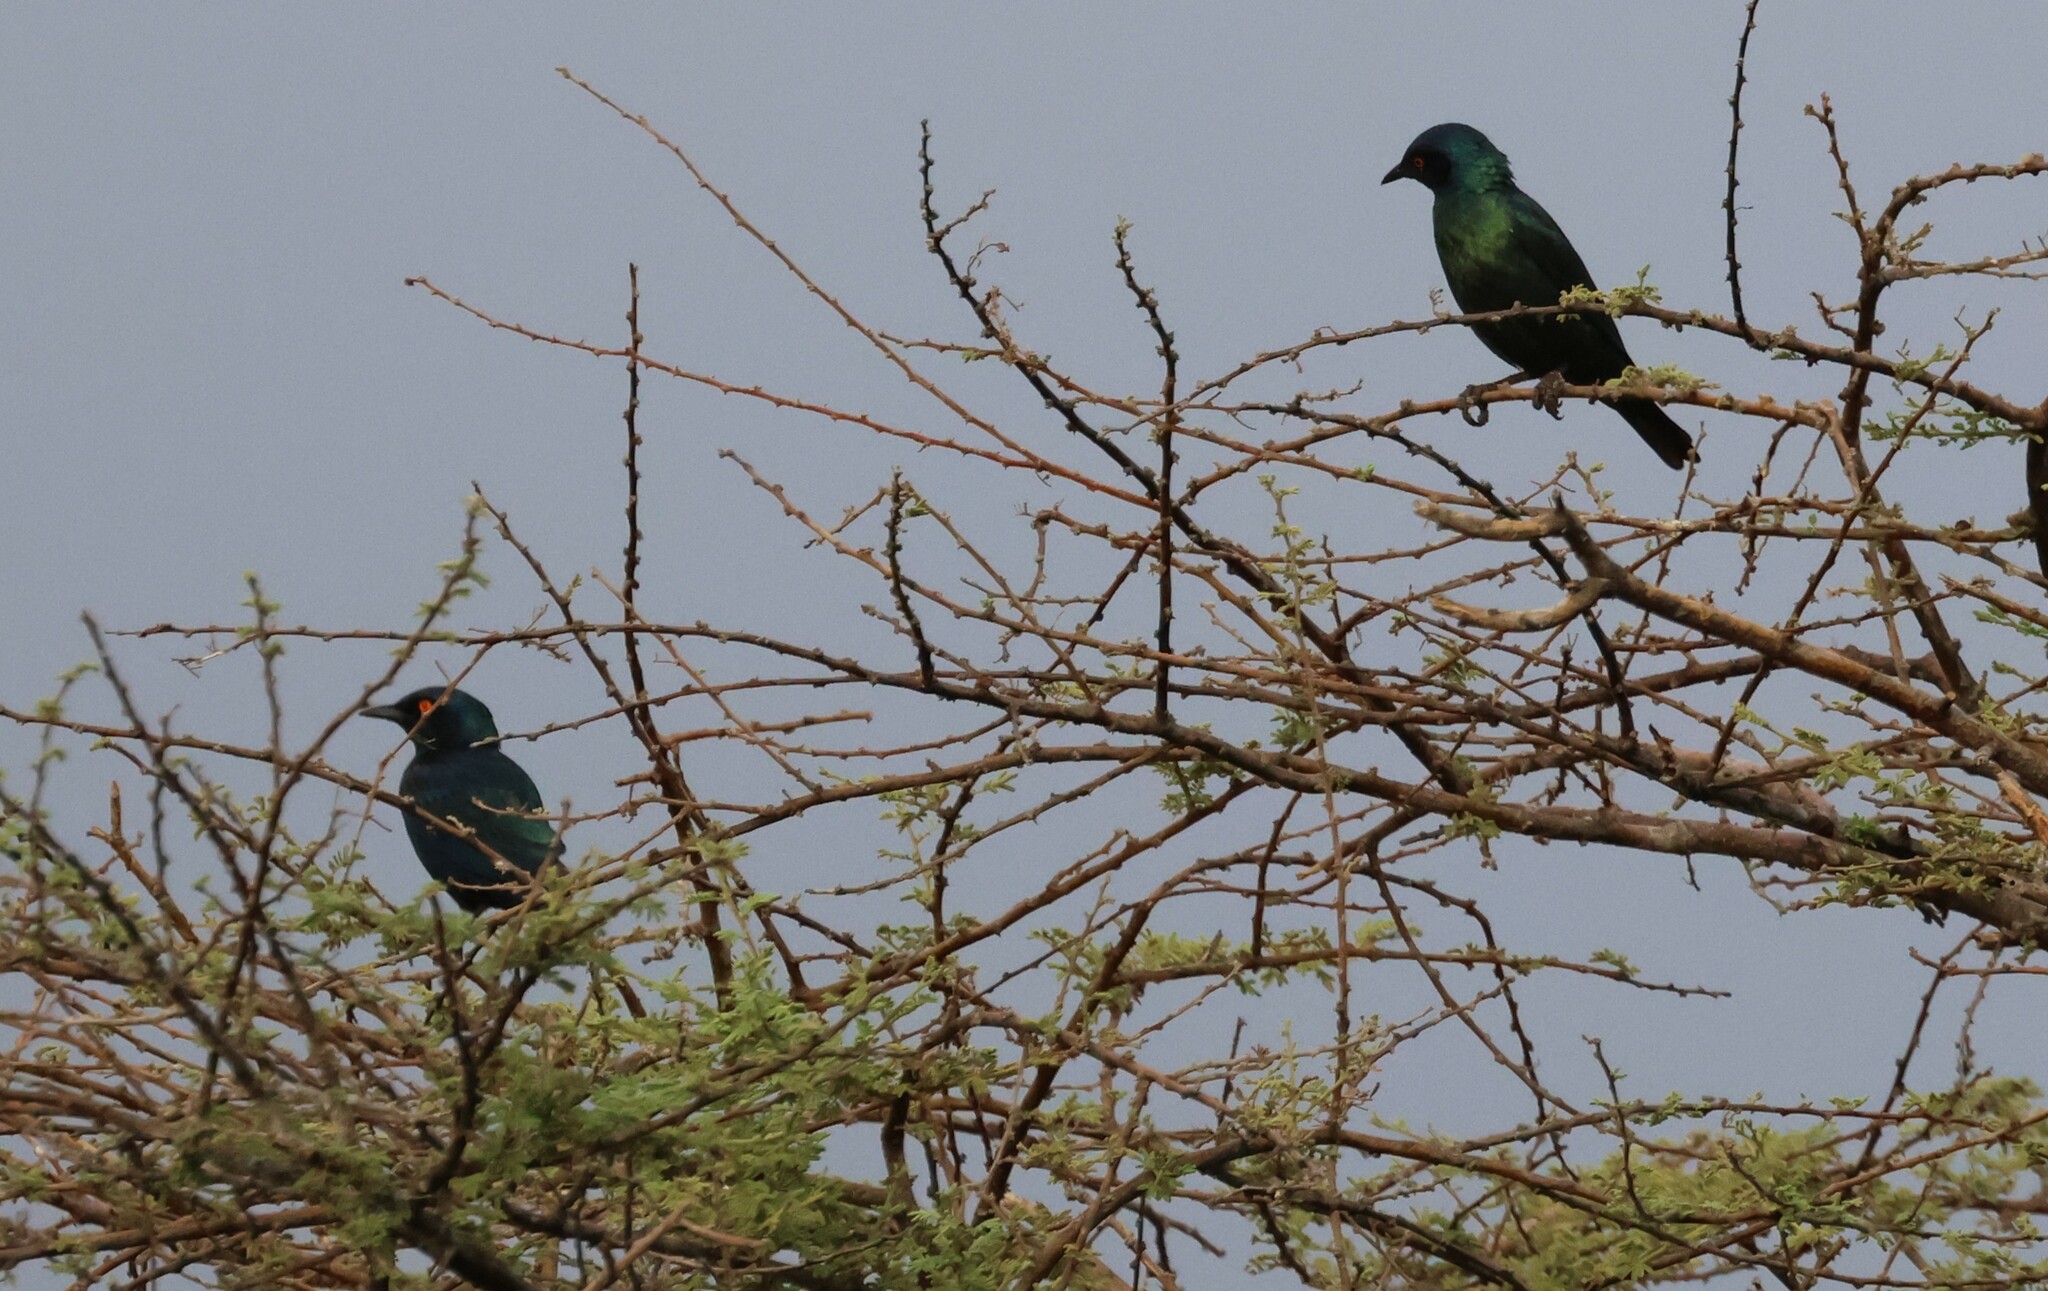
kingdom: Animalia
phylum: Chordata
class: Aves
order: Passeriformes
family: Sturnidae
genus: Lamprotornis
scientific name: Lamprotornis nitens
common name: Cape starling
